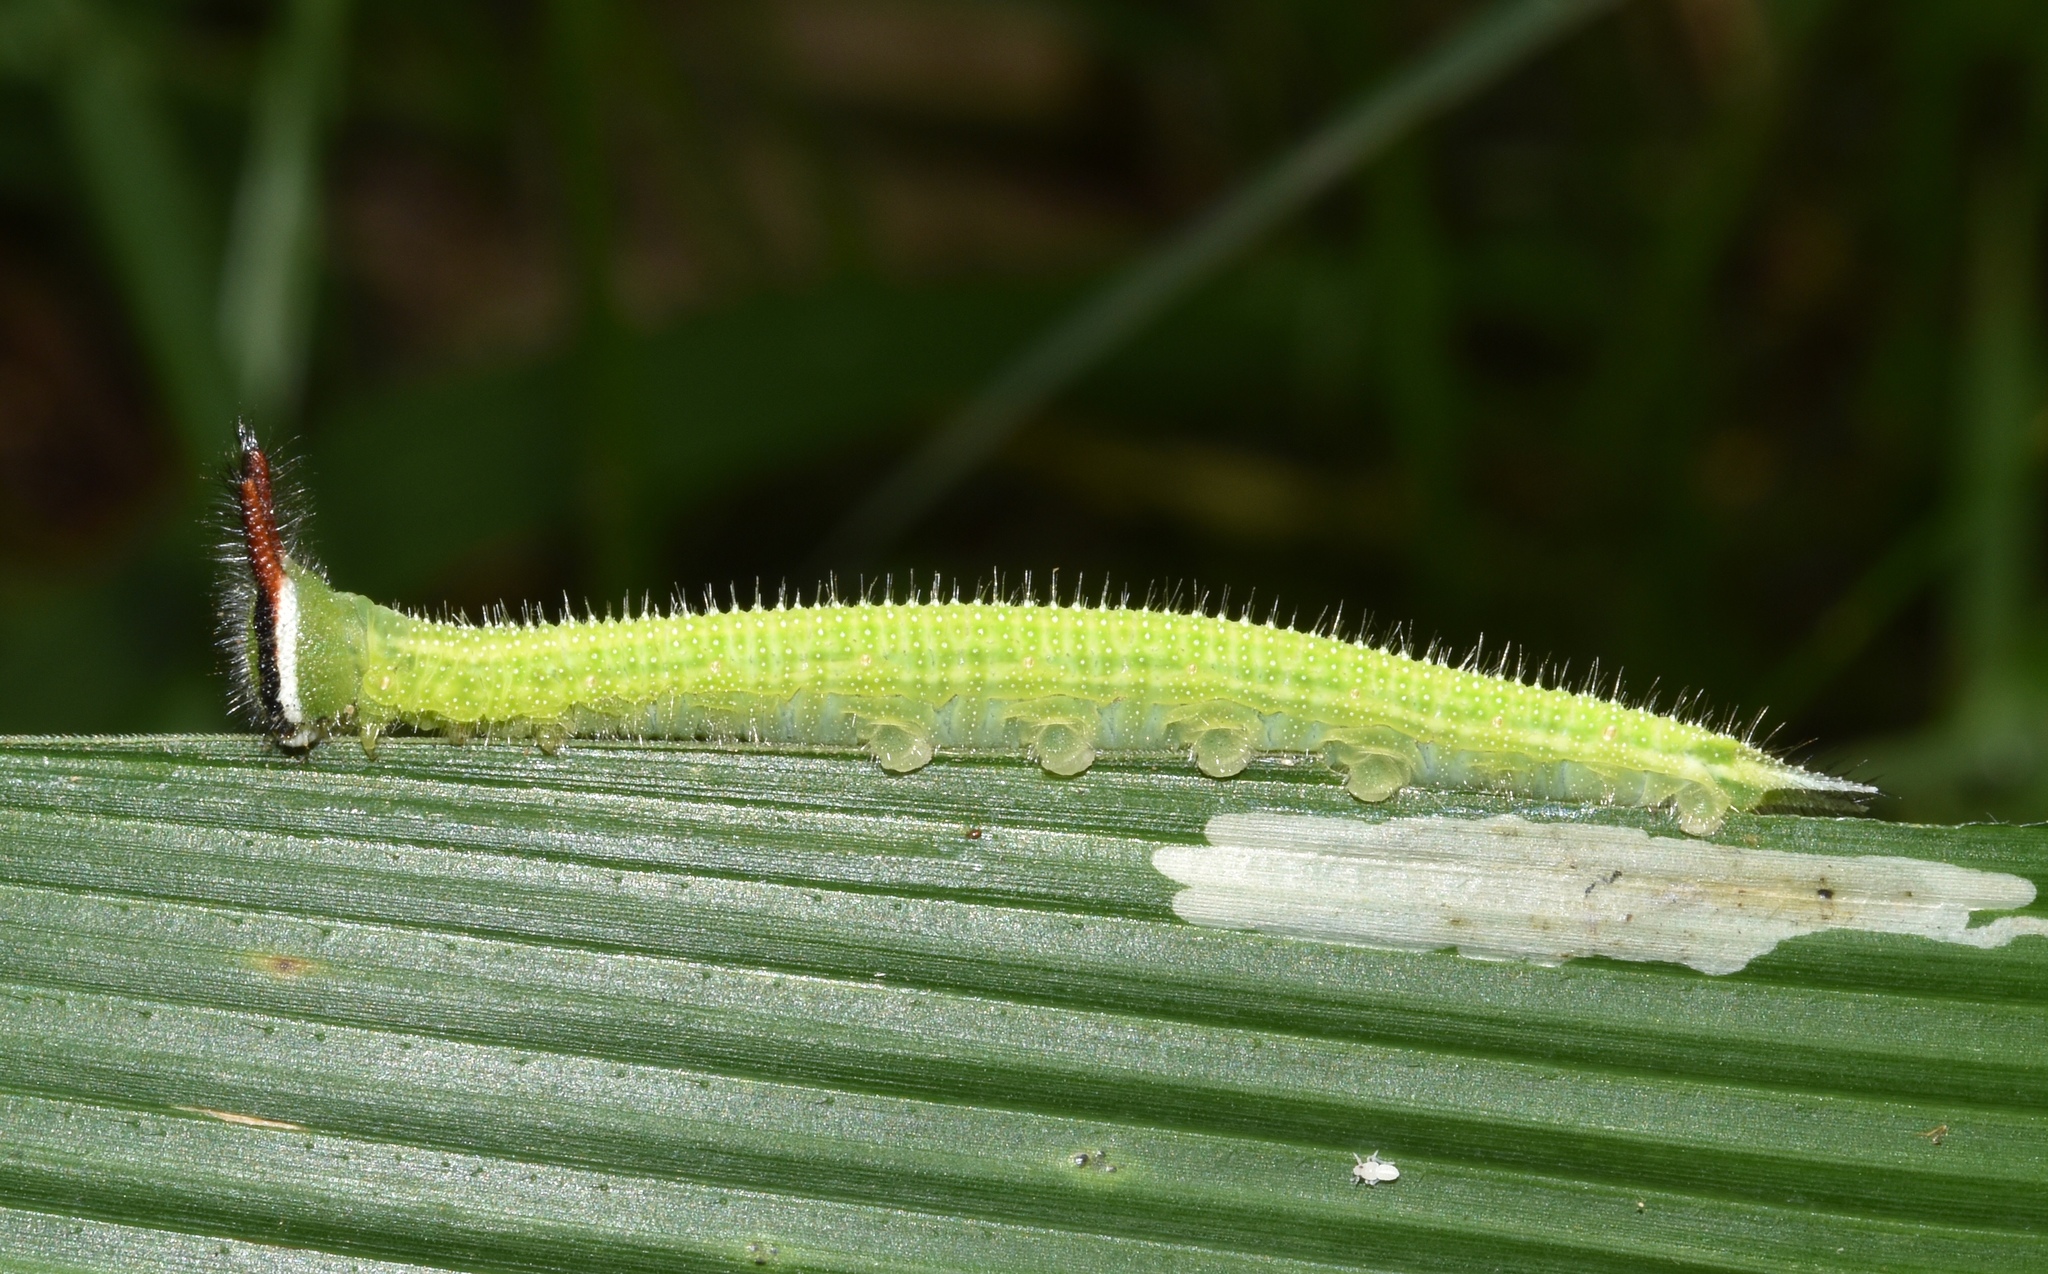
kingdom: Animalia
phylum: Arthropoda
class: Insecta
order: Lepidoptera
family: Nymphalidae
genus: Melanitis
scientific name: Melanitis leda
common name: Twilight brown
